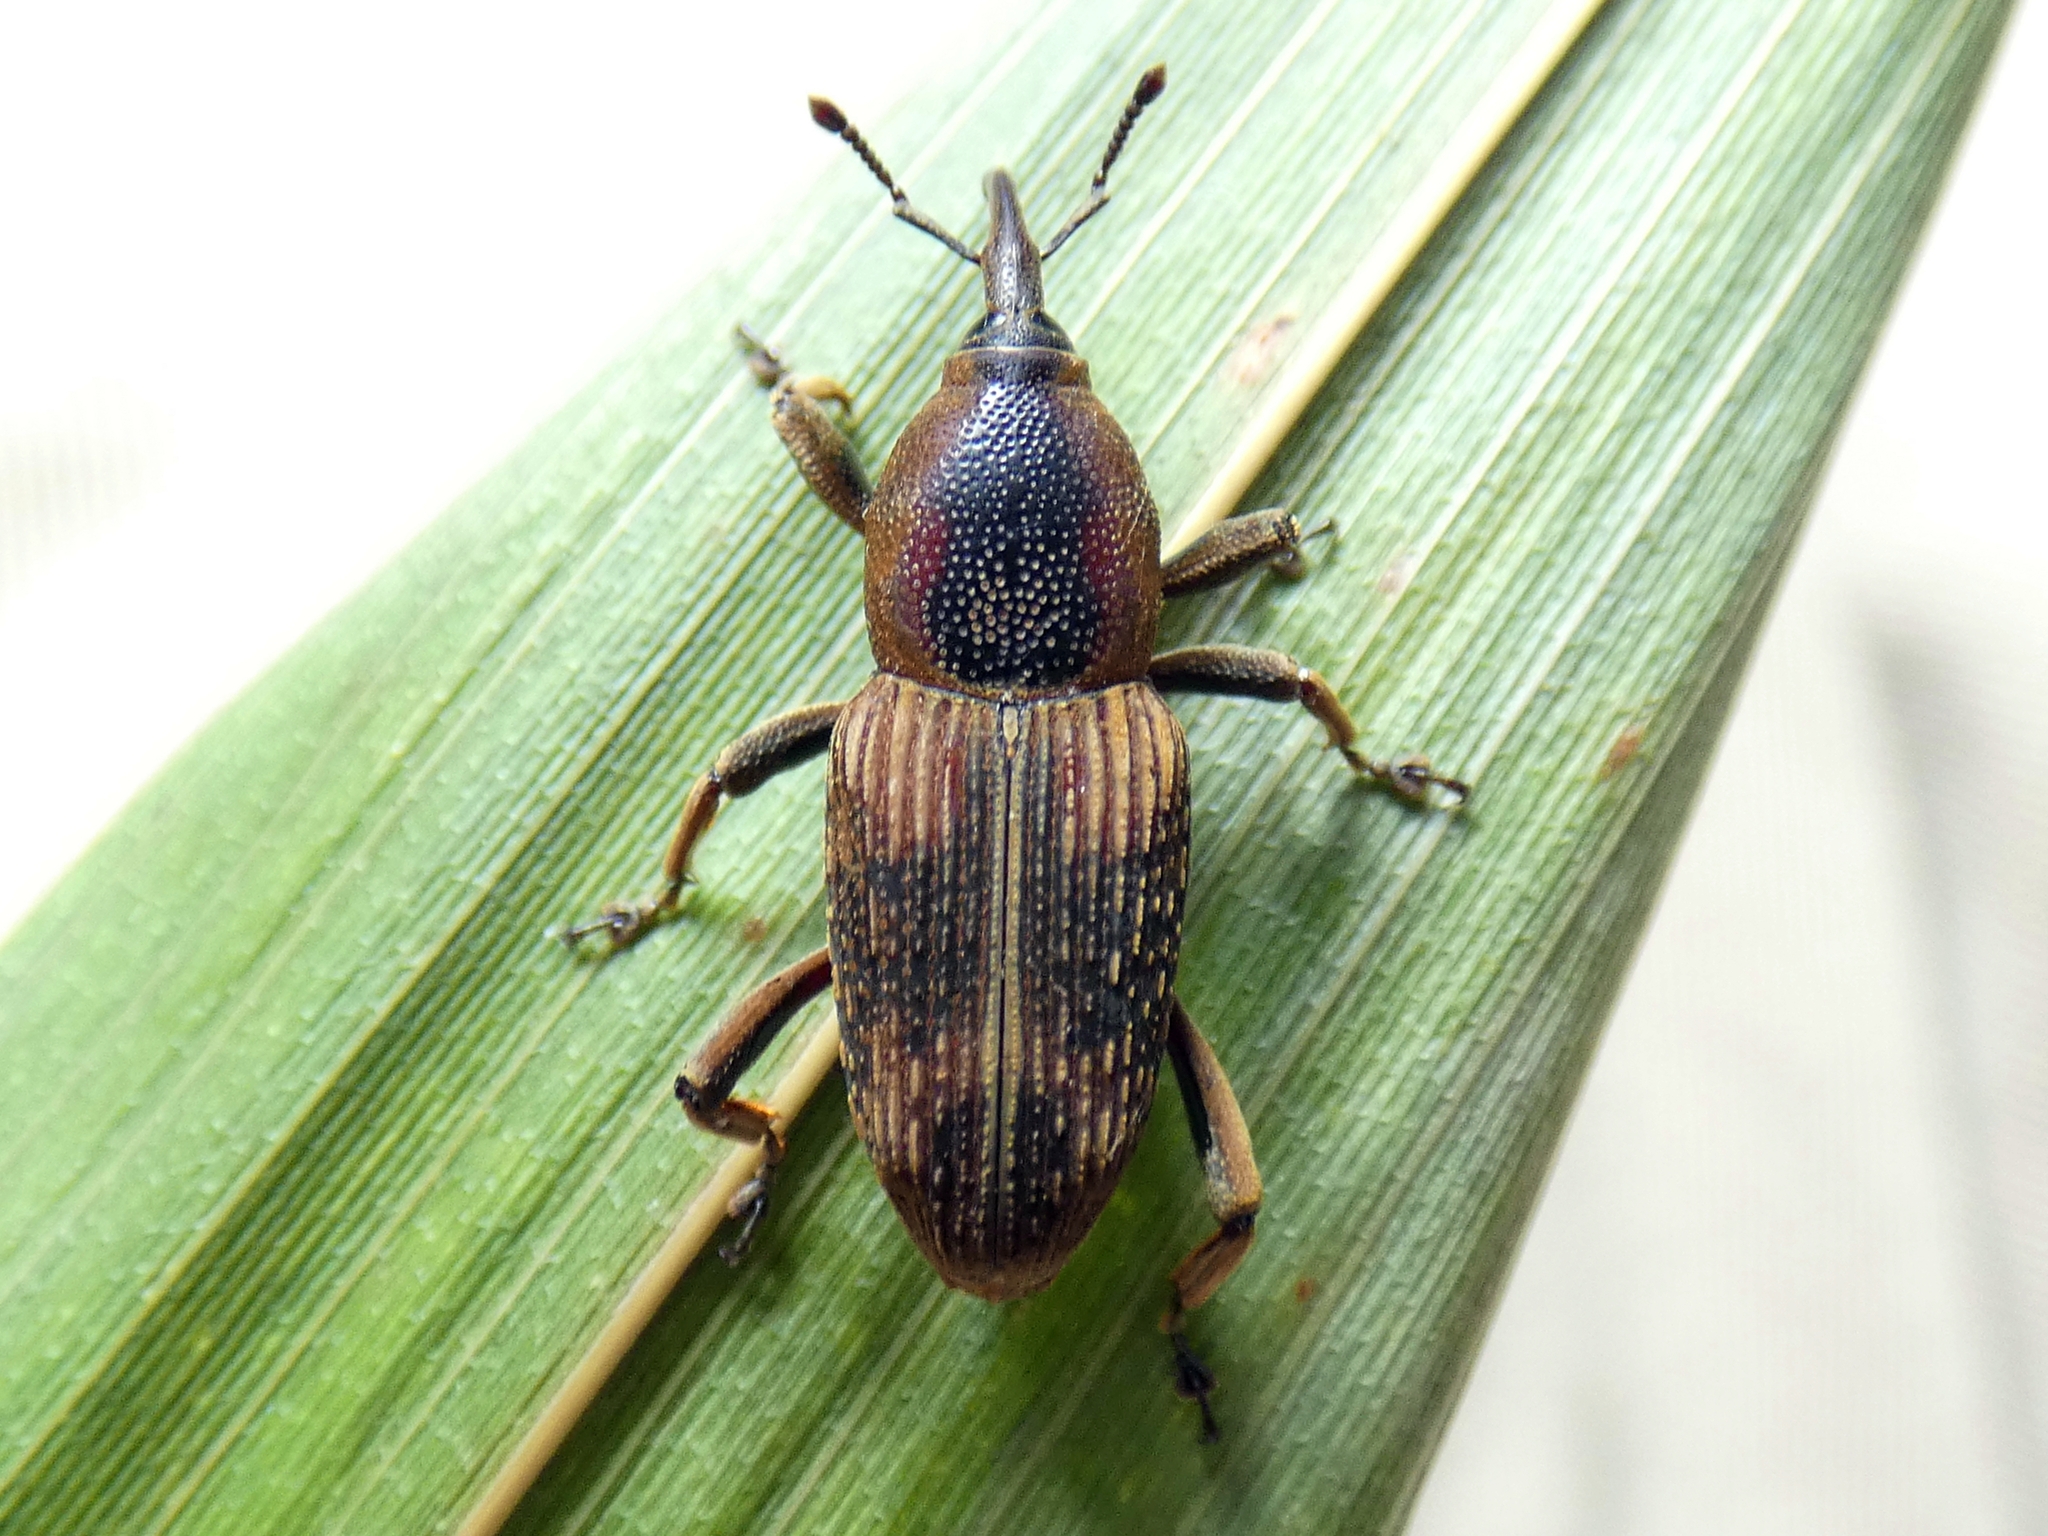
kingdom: Animalia
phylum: Arthropoda
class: Insecta
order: Coleoptera
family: Dryophthoridae
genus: Rhabdoscelus
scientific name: Rhabdoscelus obscurus
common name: Cane weevil borer
